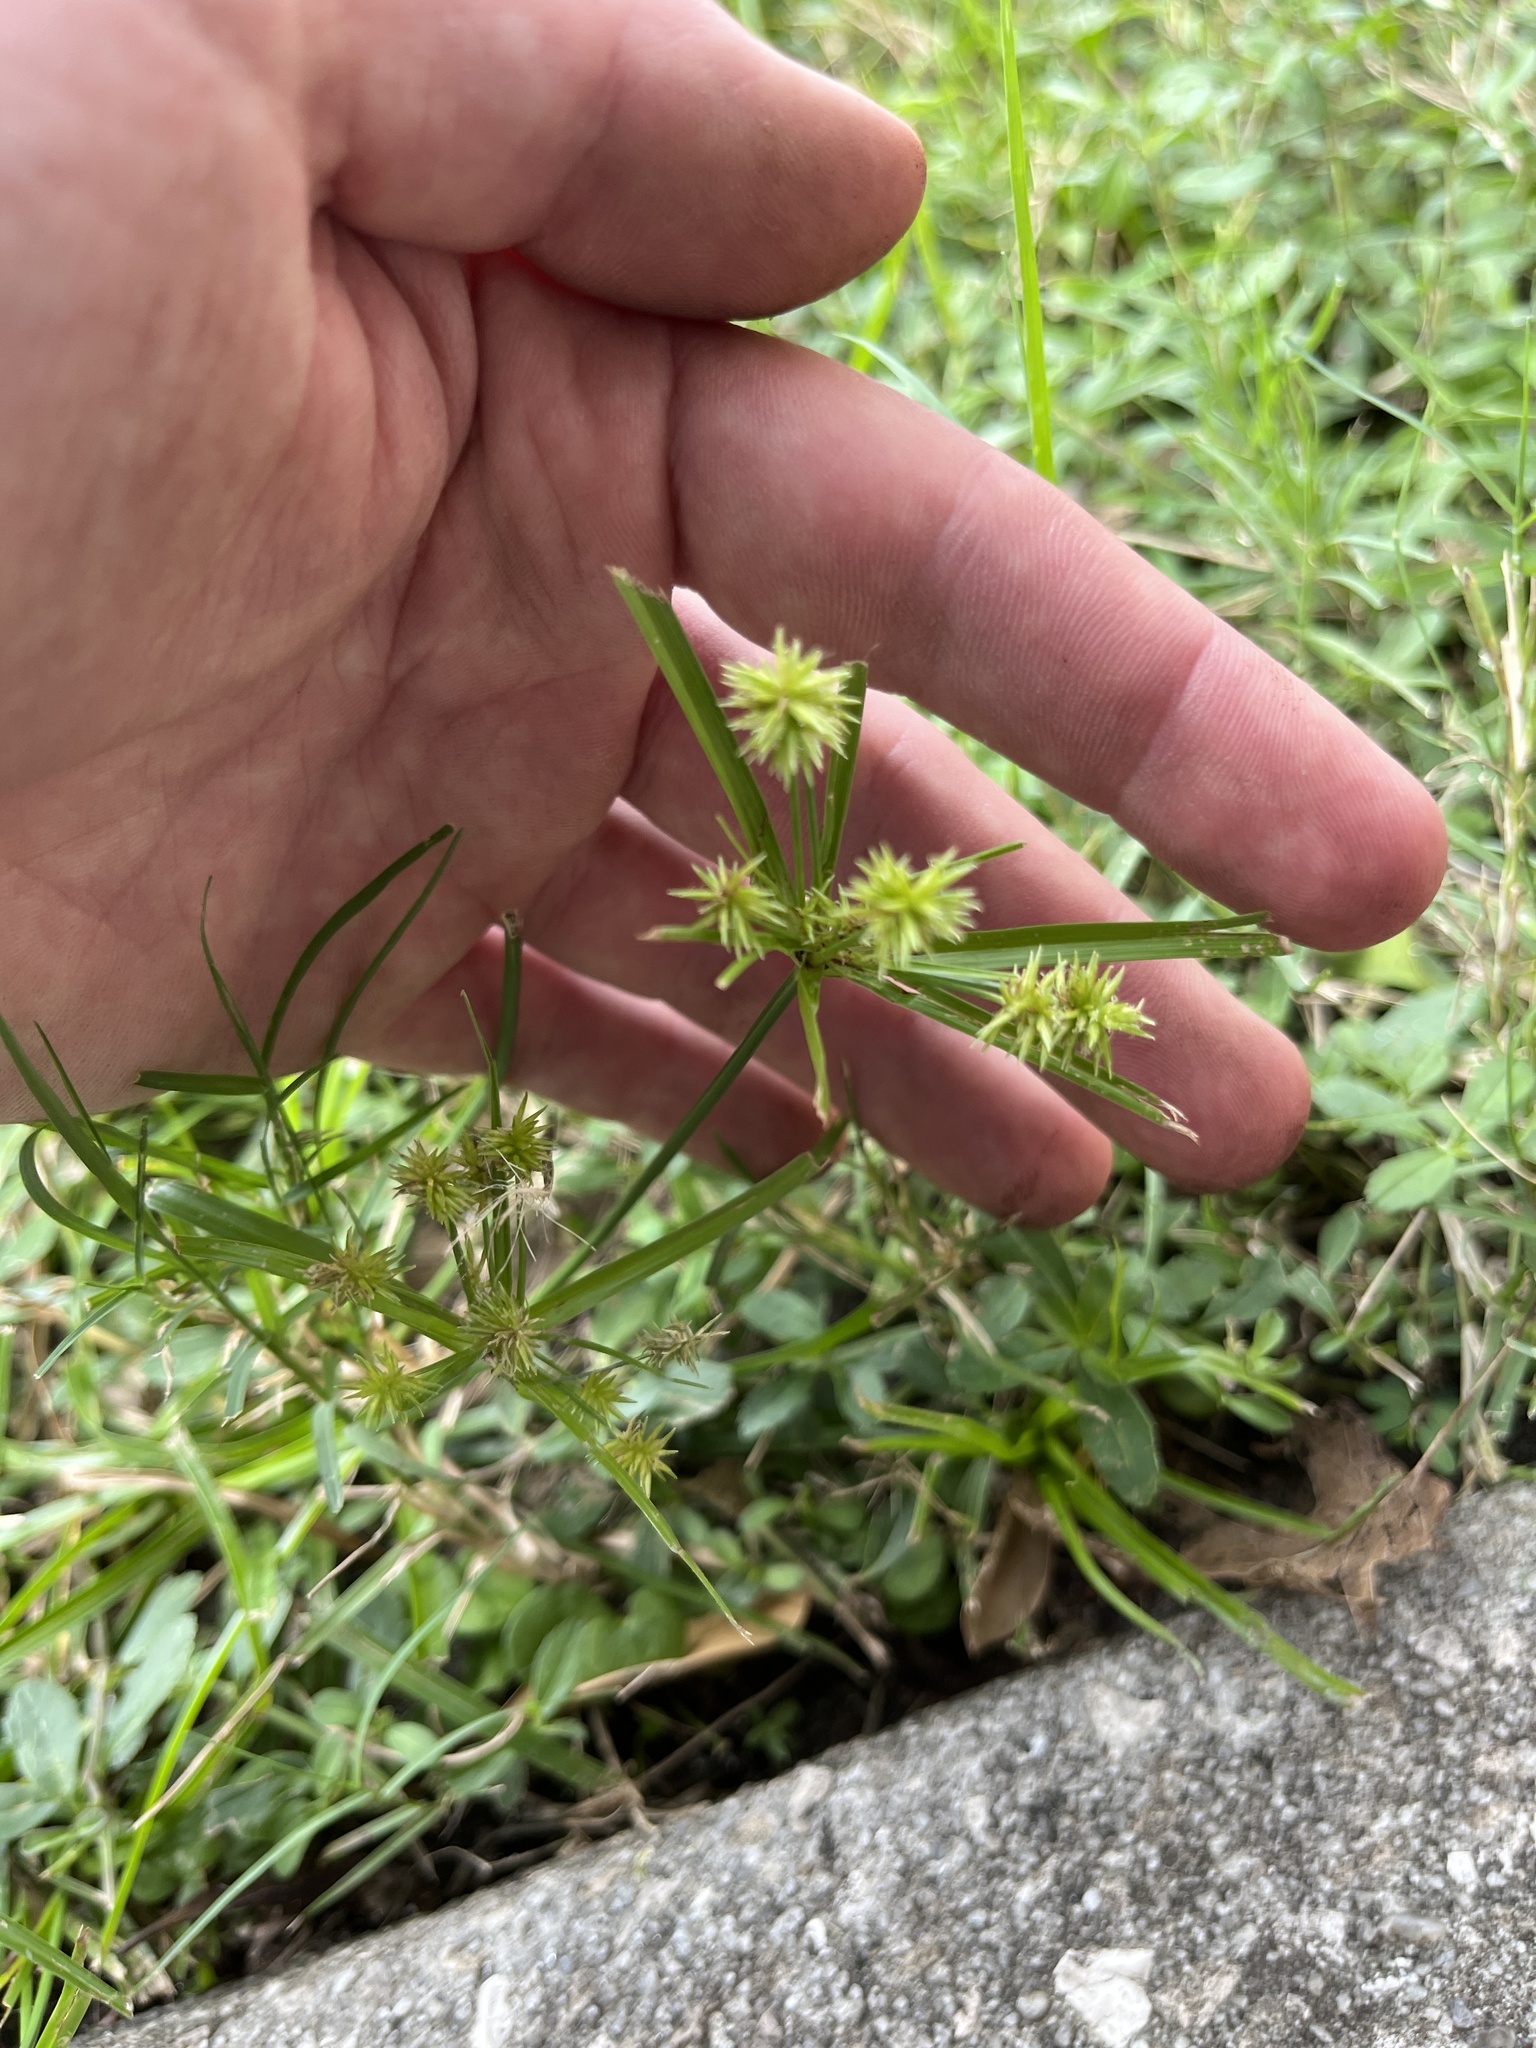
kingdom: Plantae
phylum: Tracheophyta
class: Liliopsida
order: Poales
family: Cyperaceae
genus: Cyperus
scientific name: Cyperus croceus
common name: Baldwin's flatsedge
